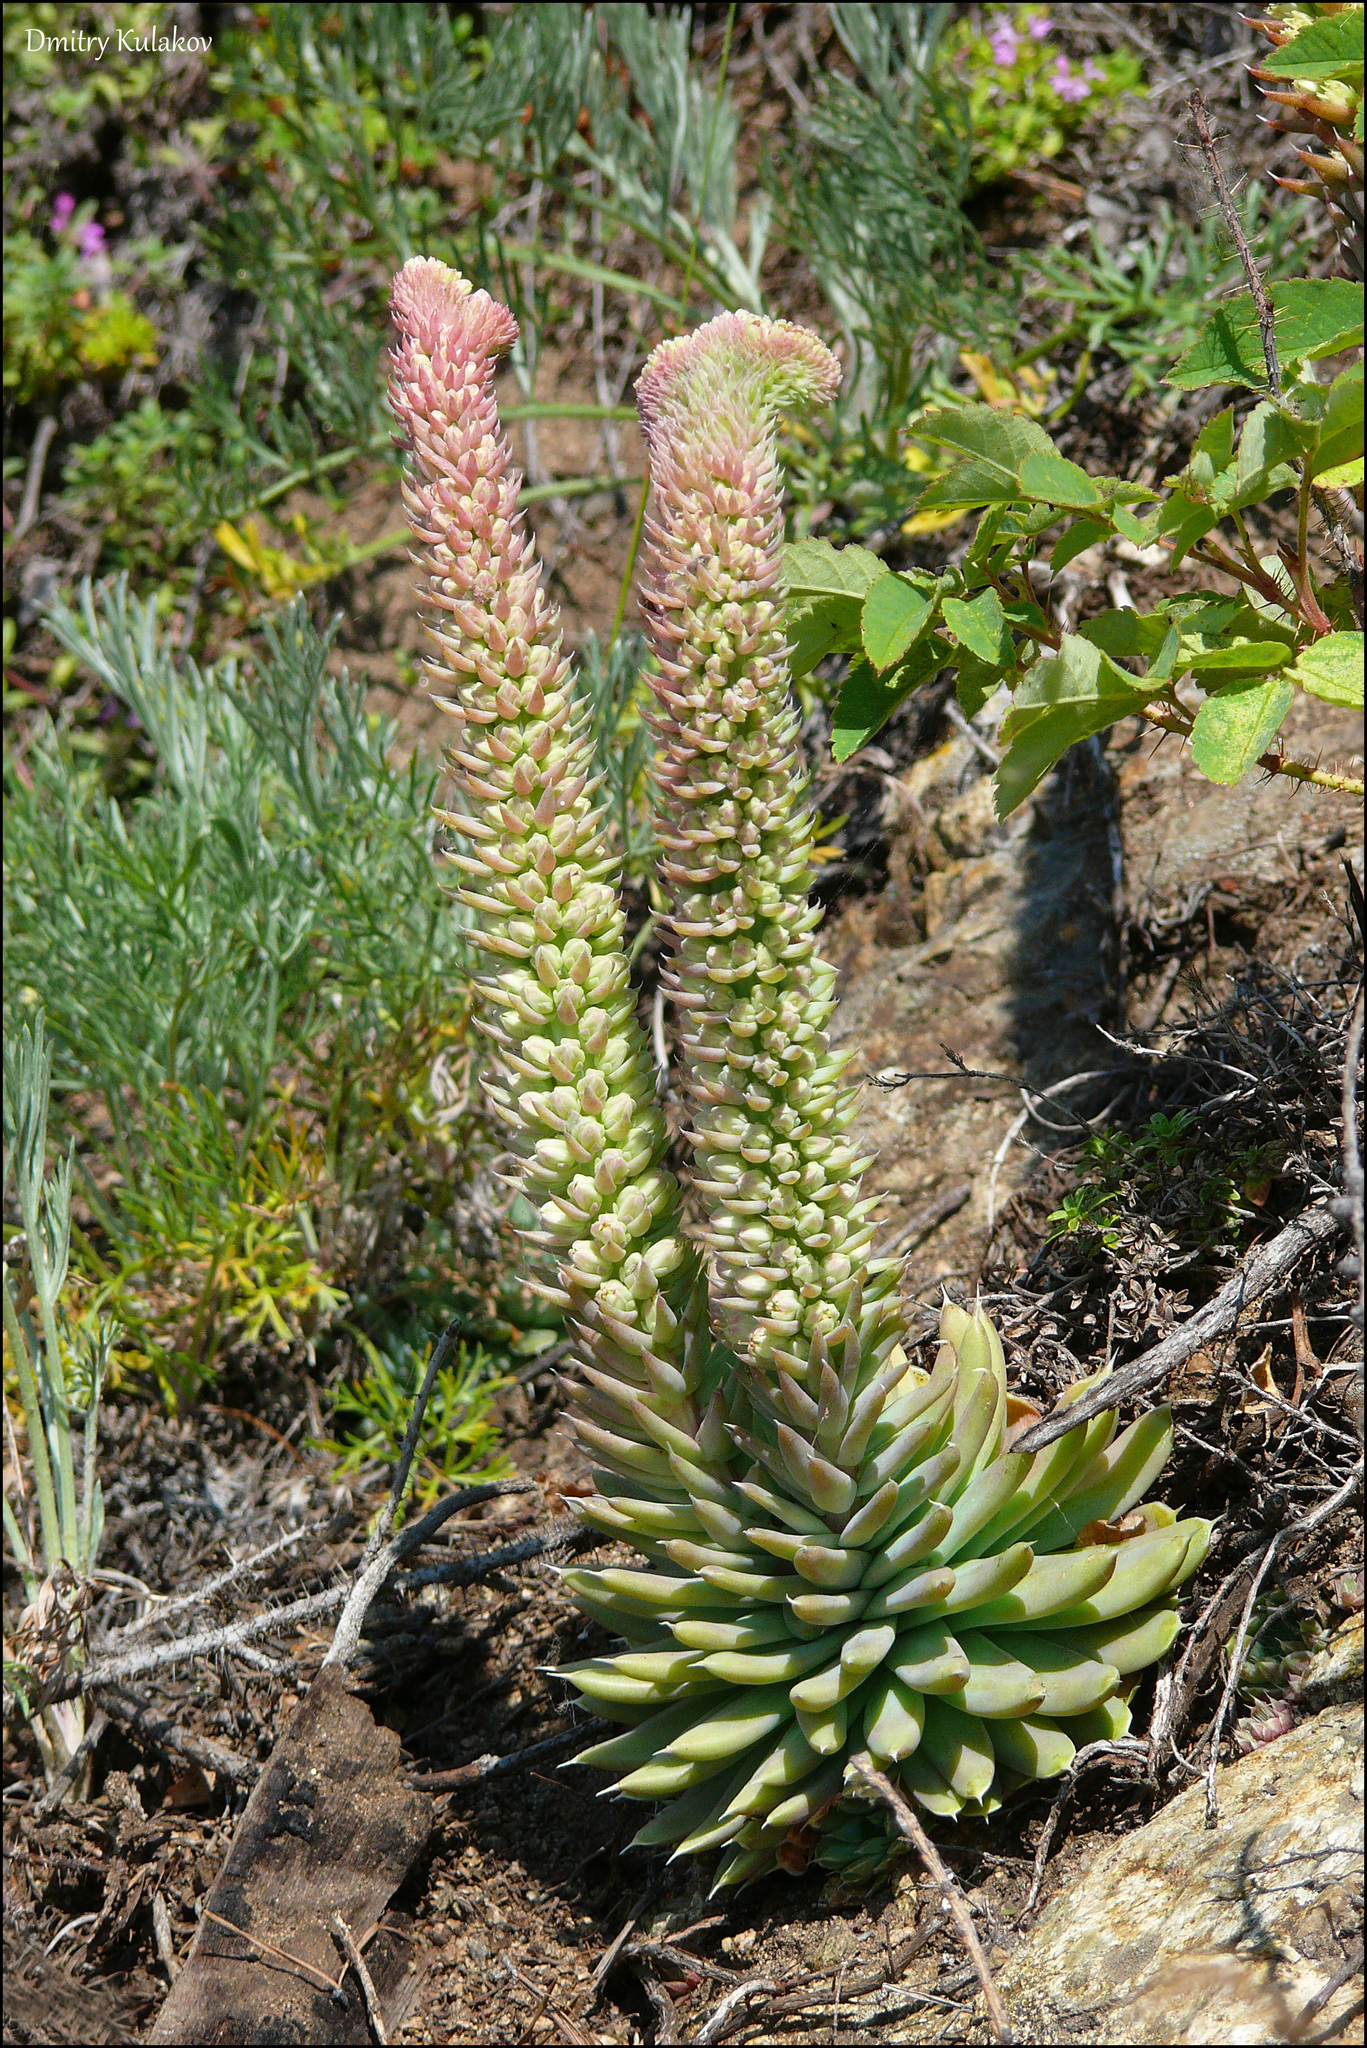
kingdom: Plantae
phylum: Tracheophyta
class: Magnoliopsida
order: Saxifragales
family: Crassulaceae
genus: Orostachys
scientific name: Orostachys spinosa
